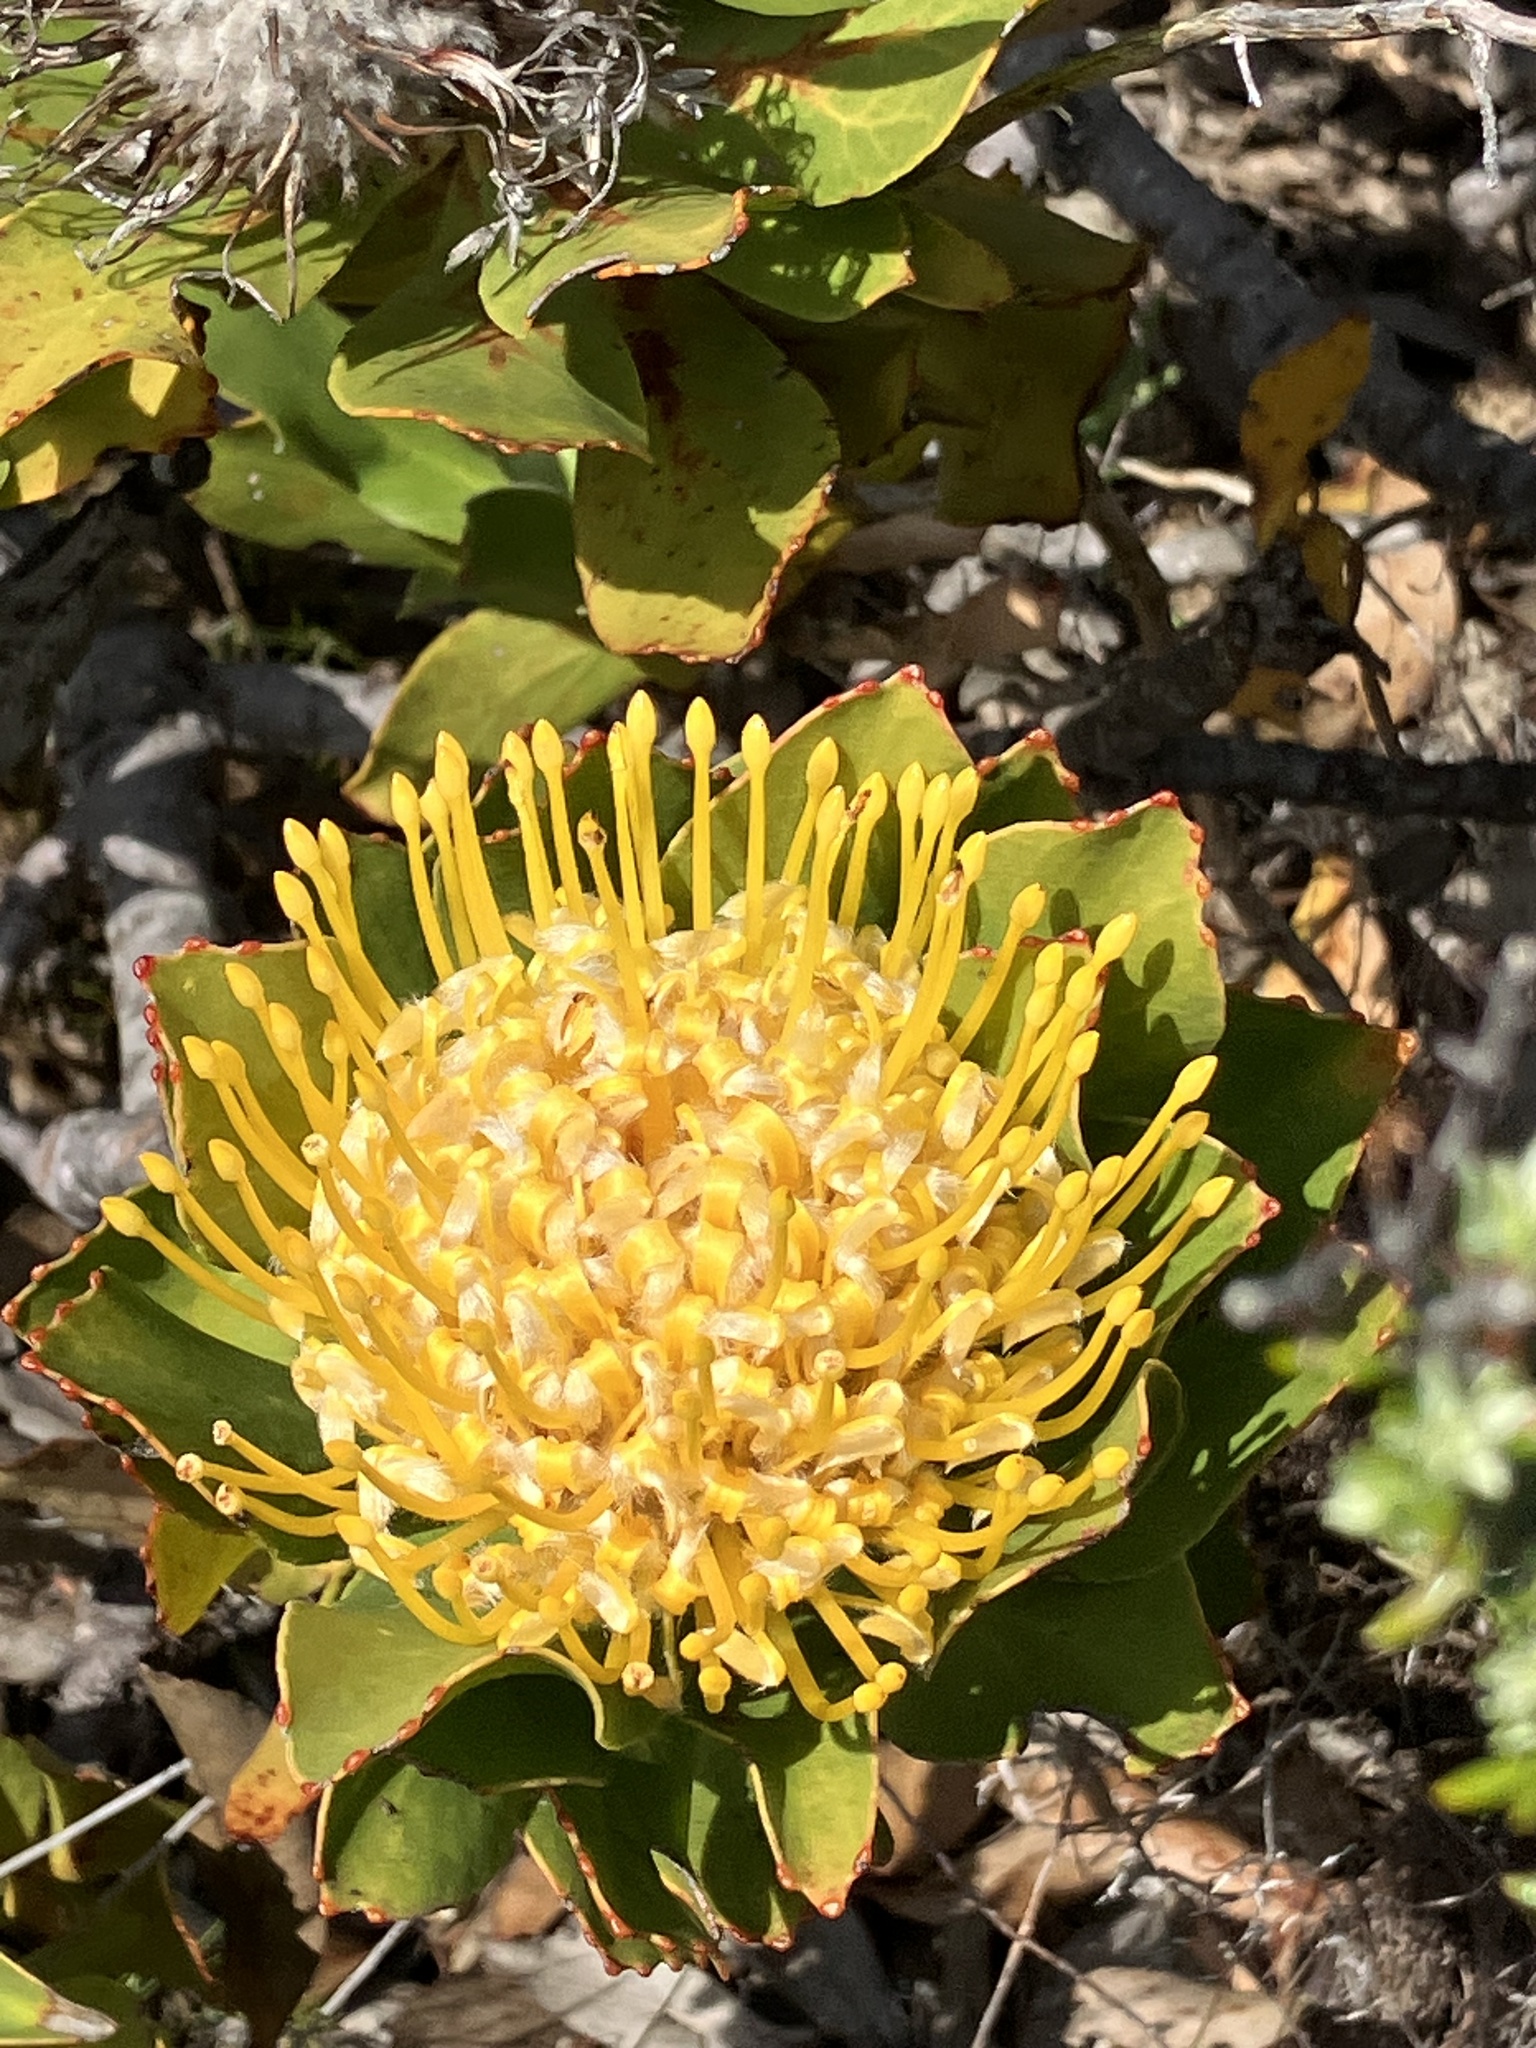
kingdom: Plantae
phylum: Tracheophyta
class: Magnoliopsida
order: Proteales
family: Proteaceae
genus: Leucospermum
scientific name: Leucospermum conocarpodendron
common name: Tree pincushion
